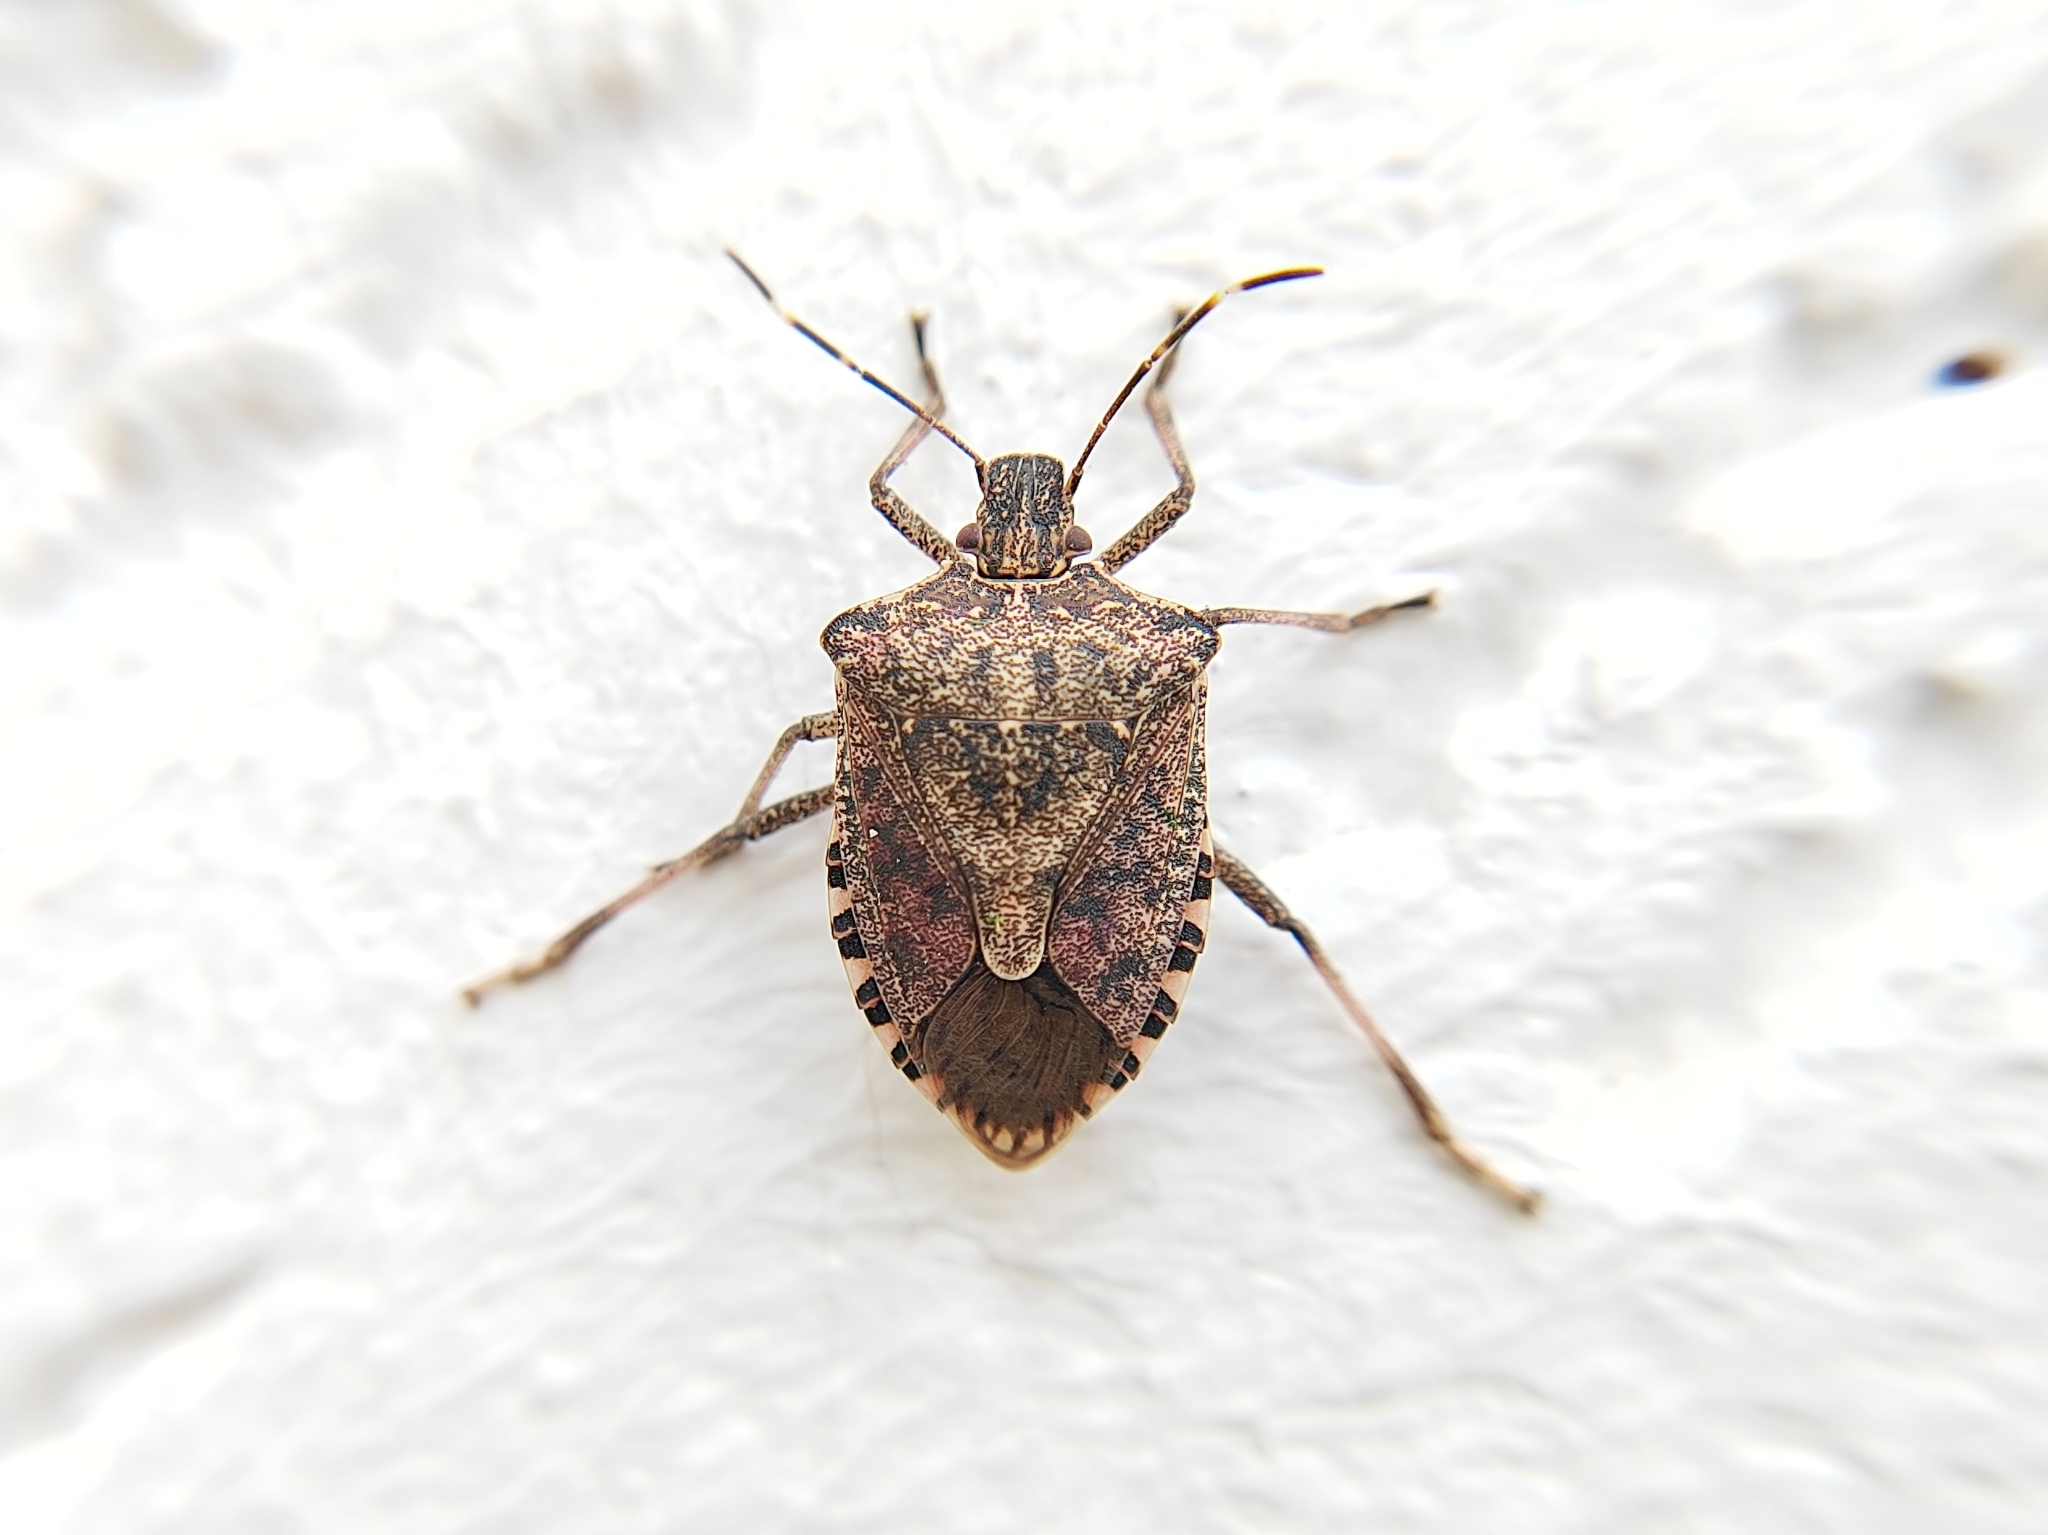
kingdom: Animalia
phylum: Arthropoda
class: Insecta
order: Hemiptera
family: Pentatomidae
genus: Halyomorpha
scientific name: Halyomorpha halys
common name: Brown marmorated stink bug
